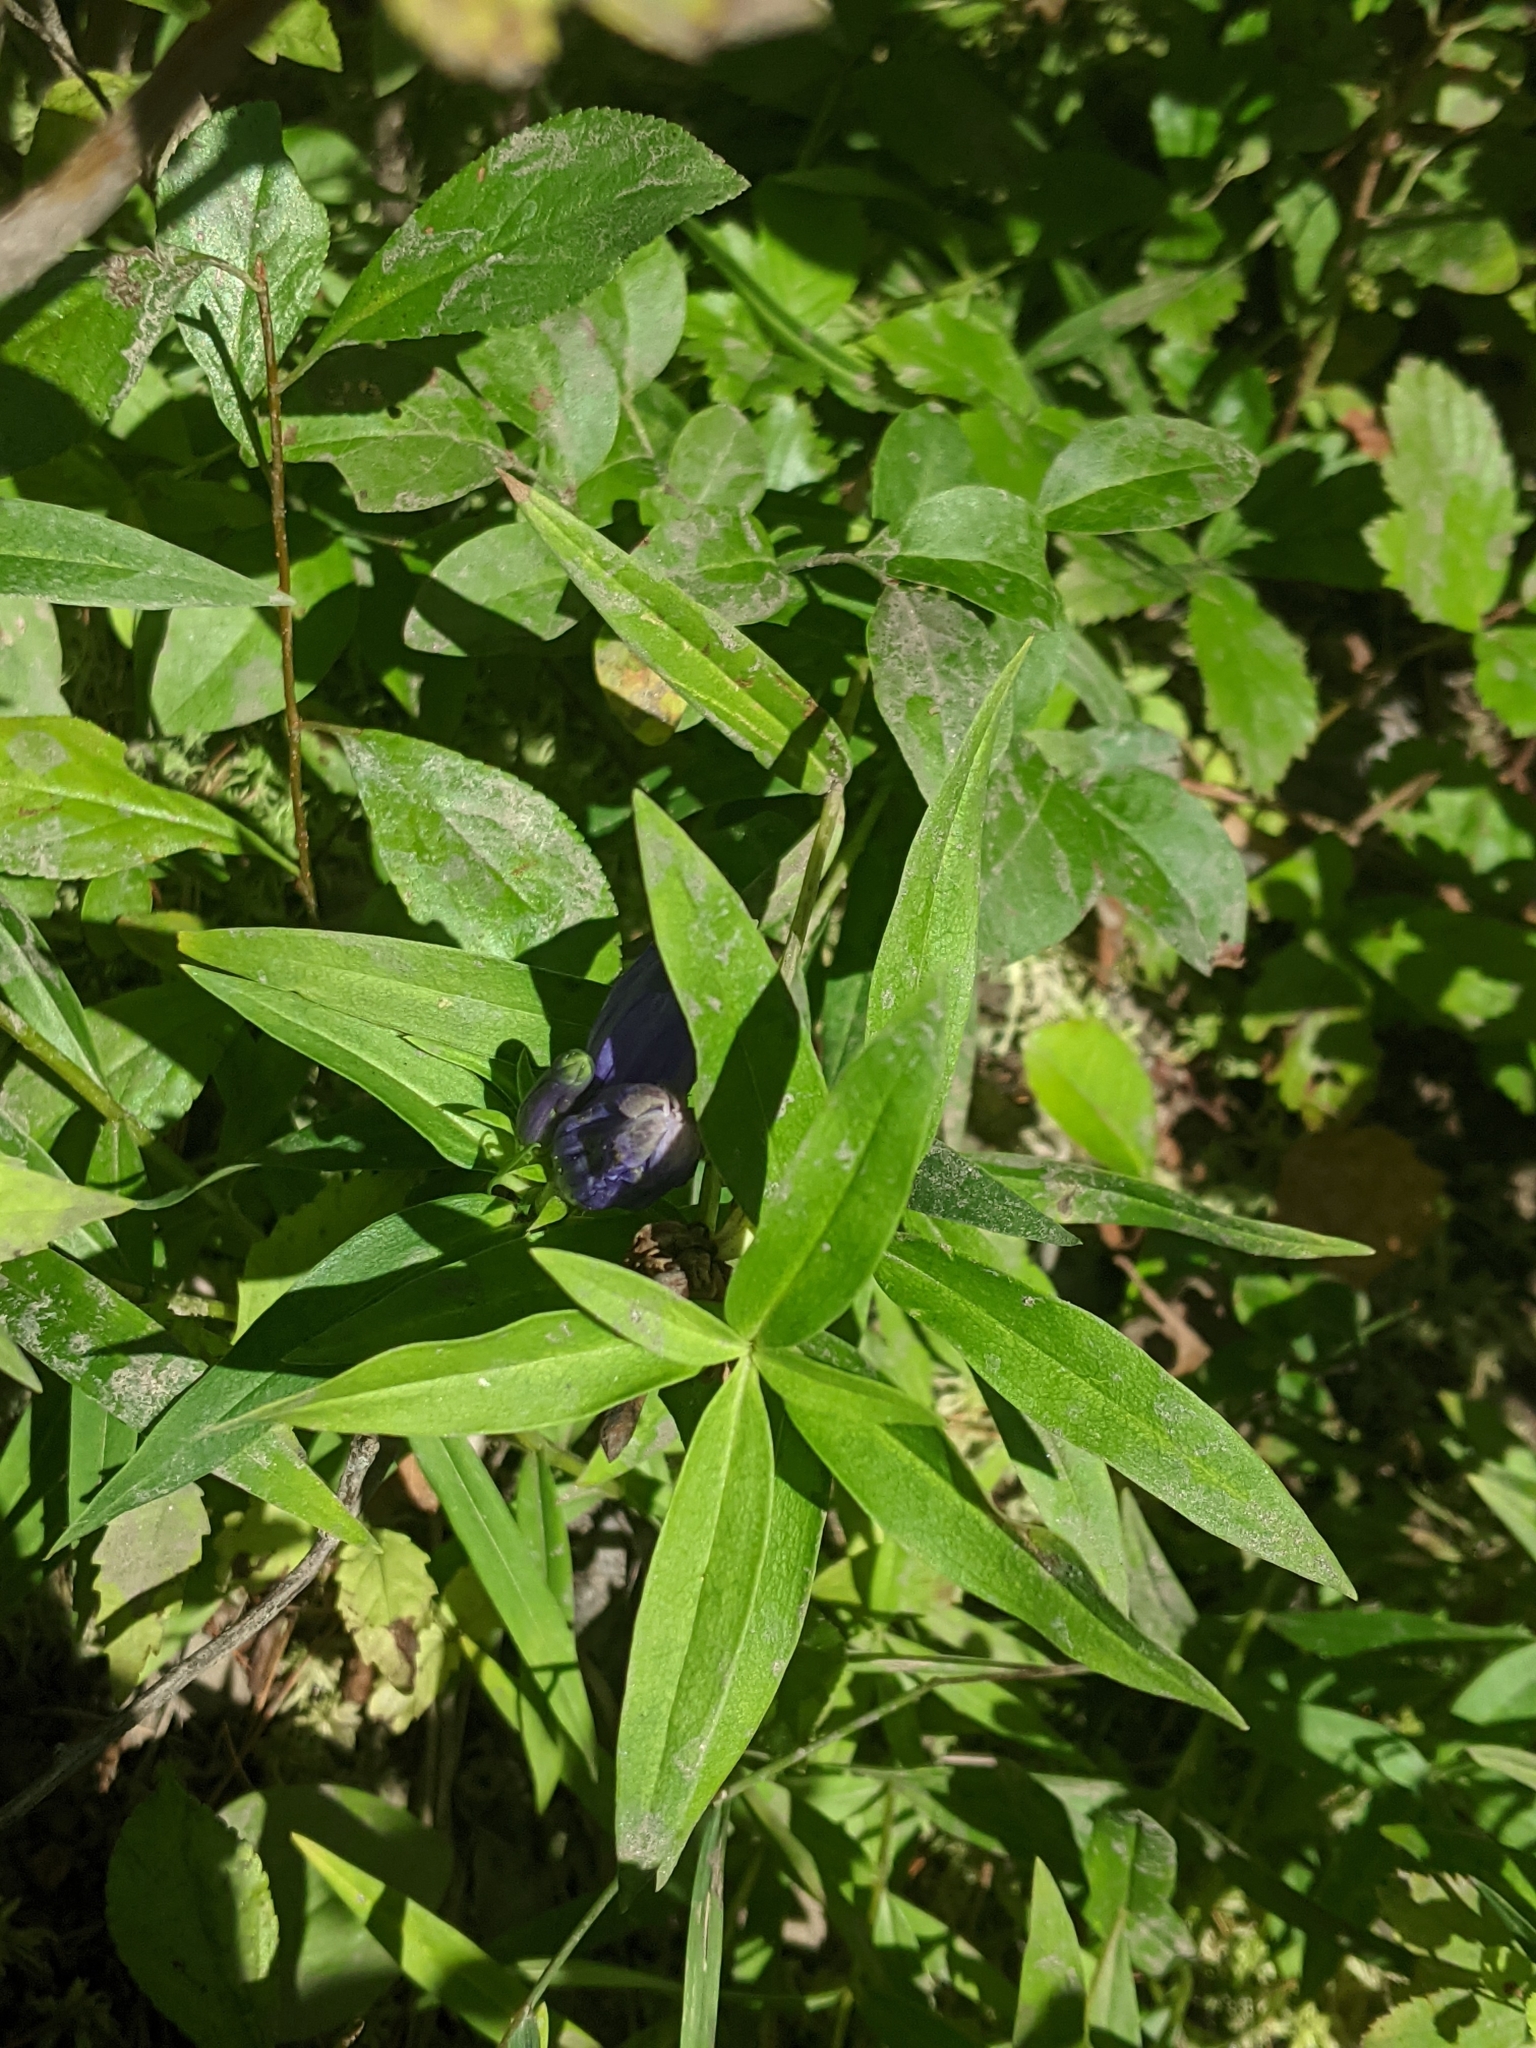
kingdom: Plantae
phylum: Tracheophyta
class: Magnoliopsida
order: Gentianales
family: Gentianaceae
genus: Gentiana
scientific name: Gentiana linearis
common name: Bastard gentian
